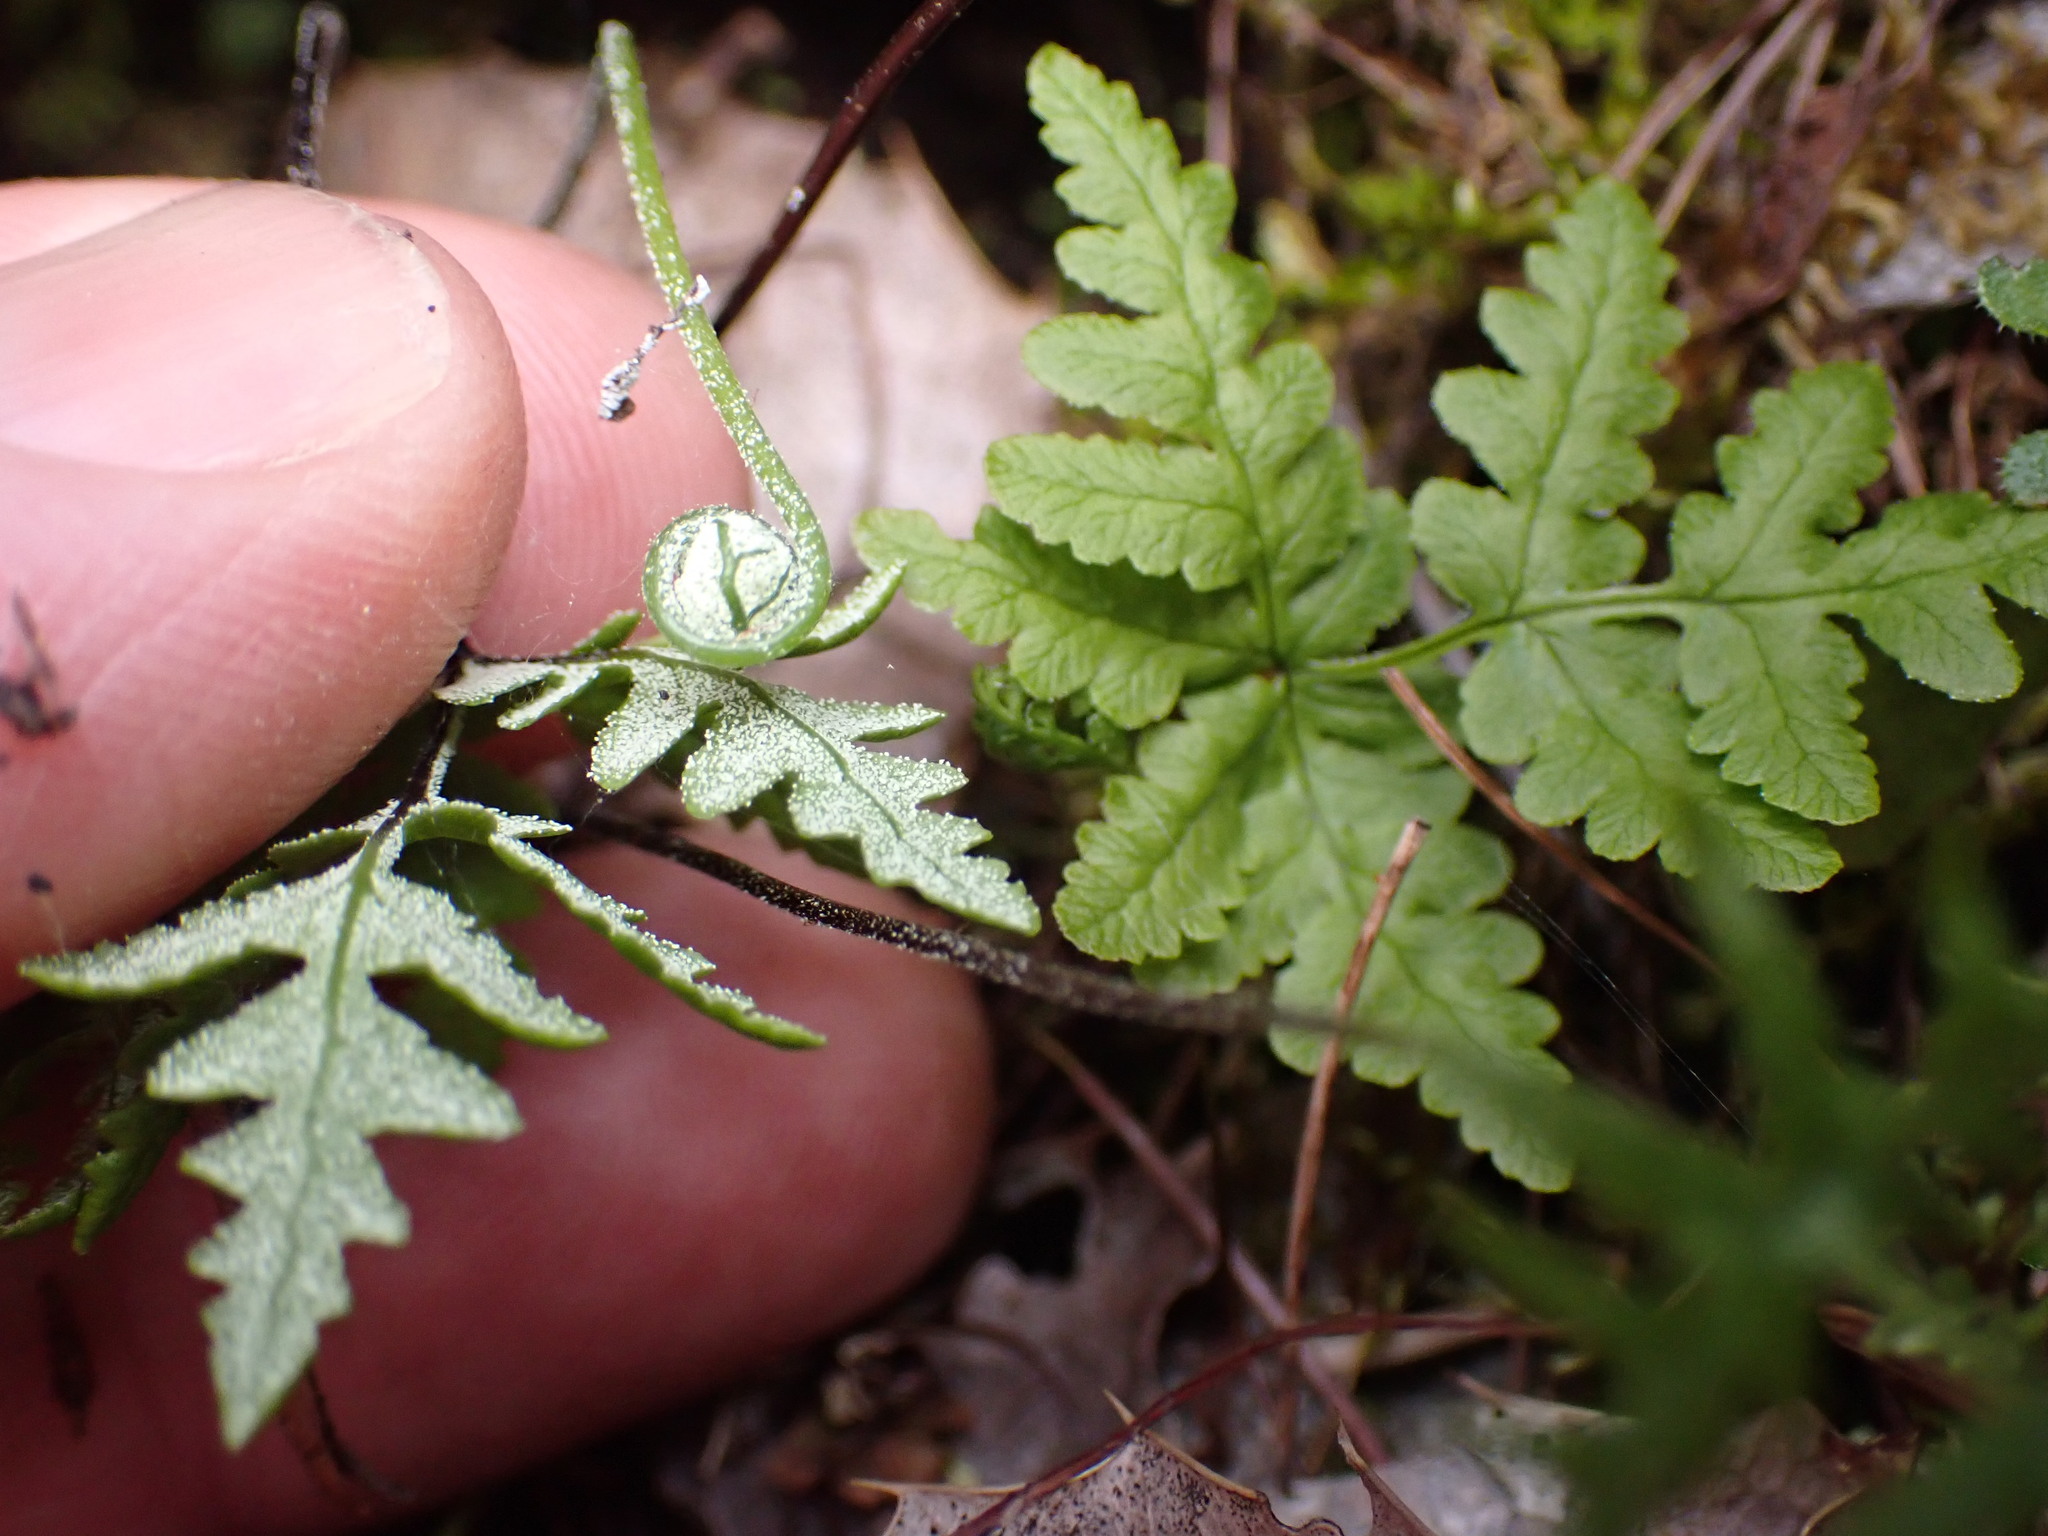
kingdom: Plantae
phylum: Tracheophyta
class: Polypodiopsida
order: Polypodiales
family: Pteridaceae
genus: Pentagramma
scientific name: Pentagramma triangularis
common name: Gold fern
